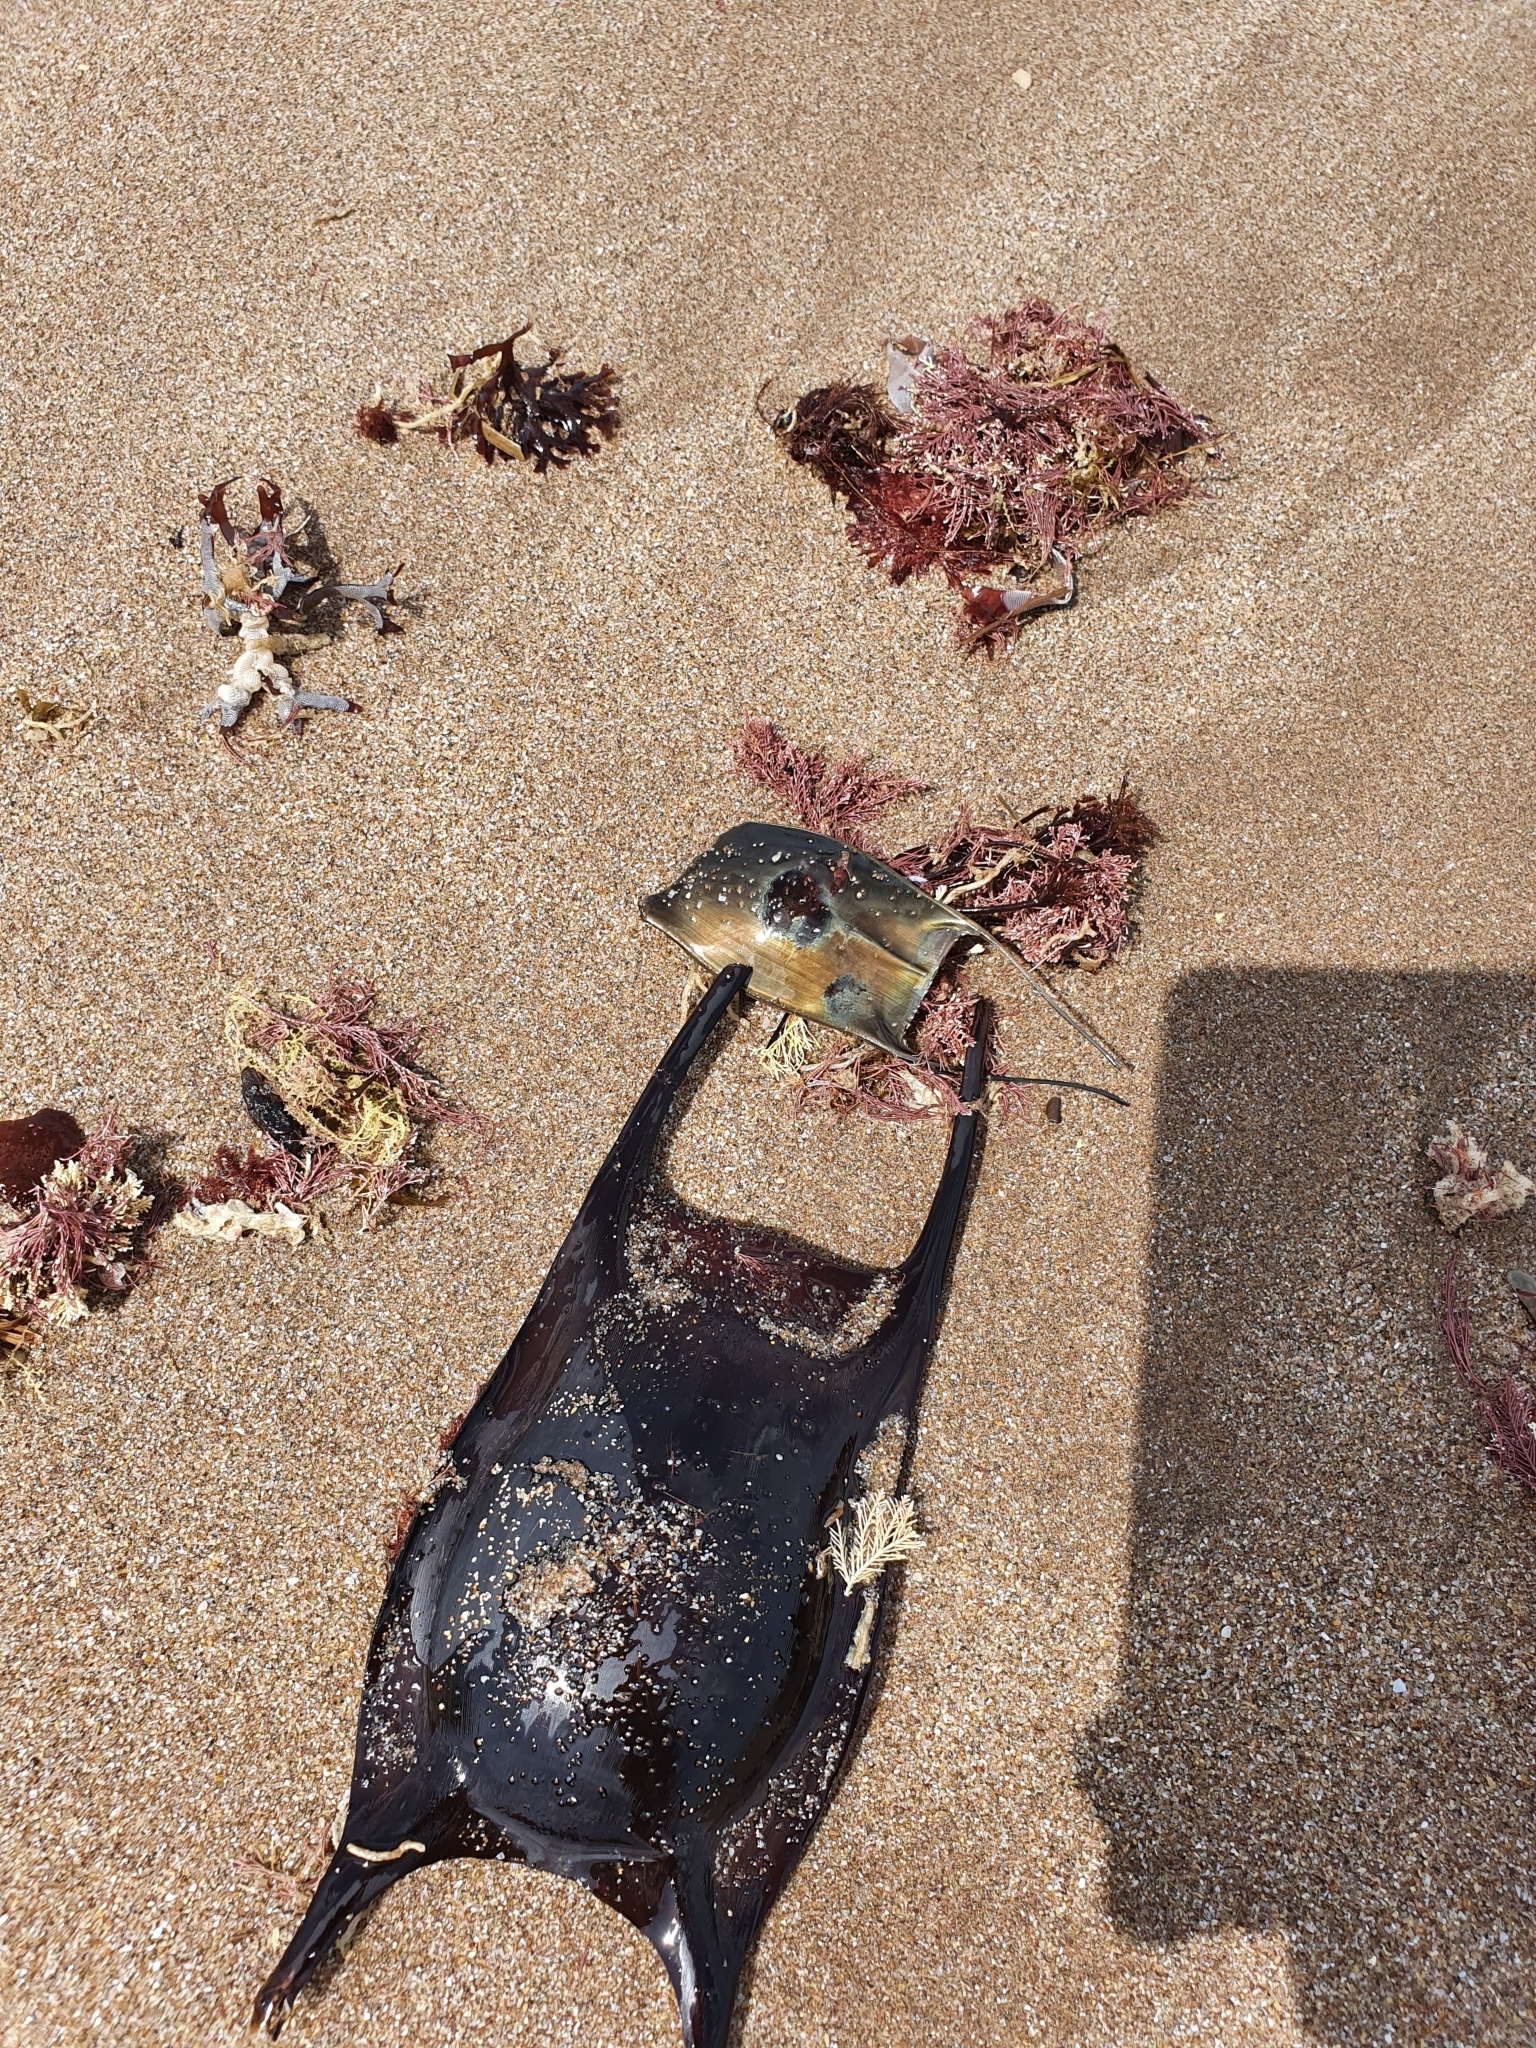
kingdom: Animalia
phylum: Chordata
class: Elasmobranchii
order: Rajiformes
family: Arhynchobatidae
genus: Atlantoraja
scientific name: Atlantoraja castelnaui
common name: Spotback skate
